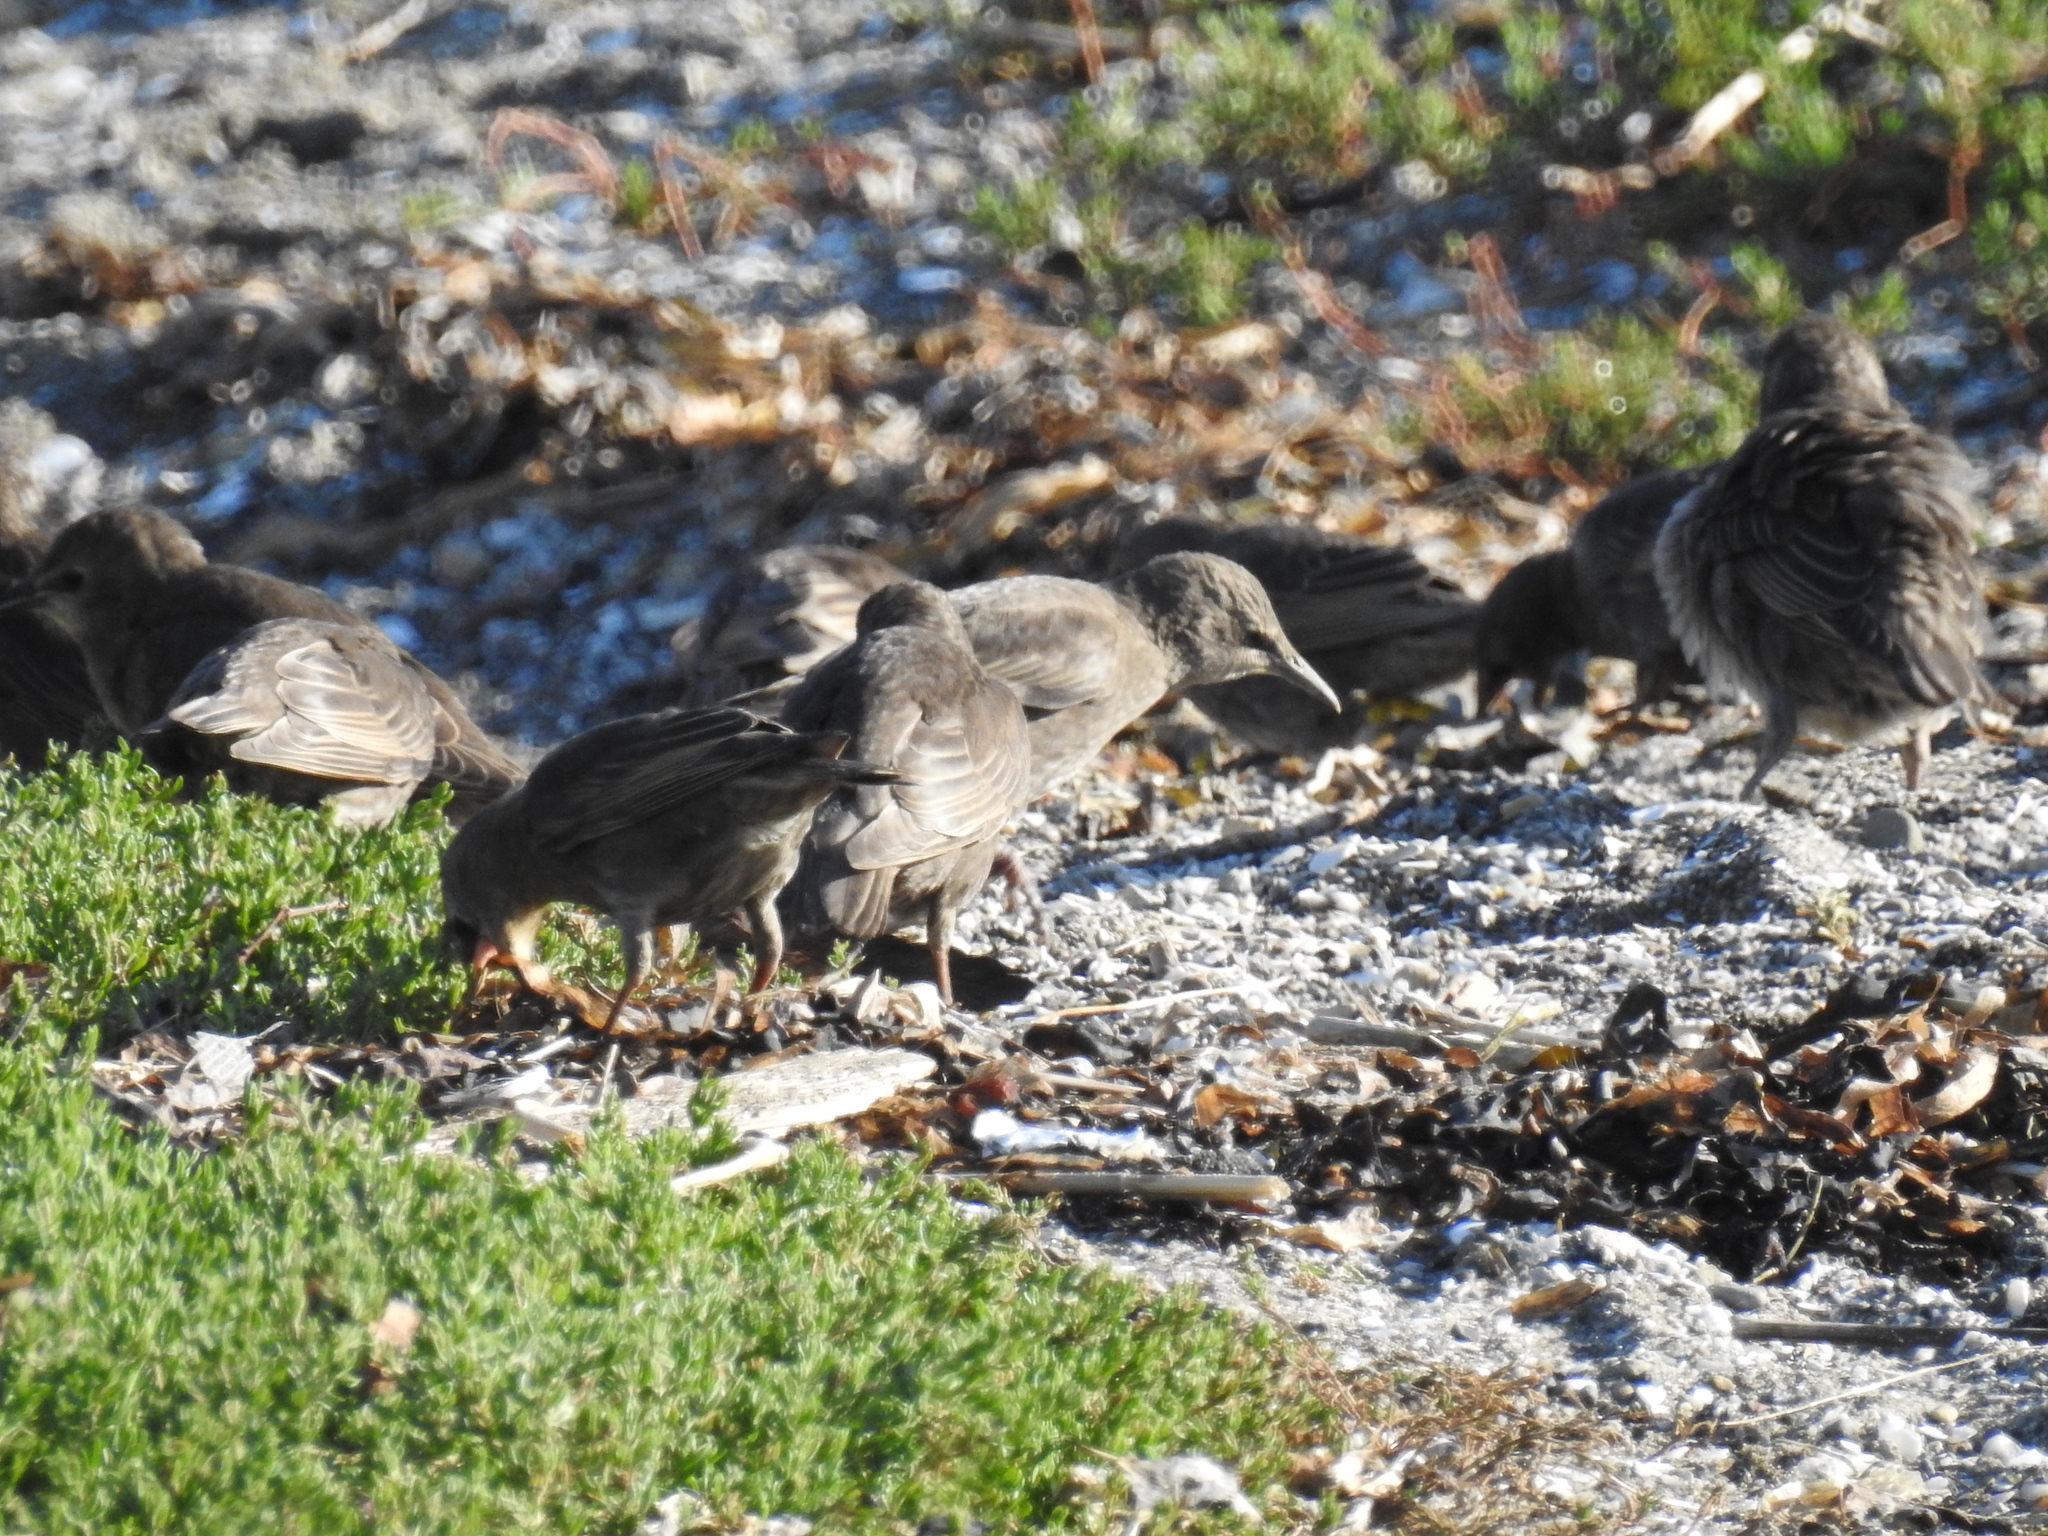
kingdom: Animalia
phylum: Chordata
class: Aves
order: Passeriformes
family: Sturnidae
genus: Sturnus
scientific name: Sturnus vulgaris
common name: Common starling
